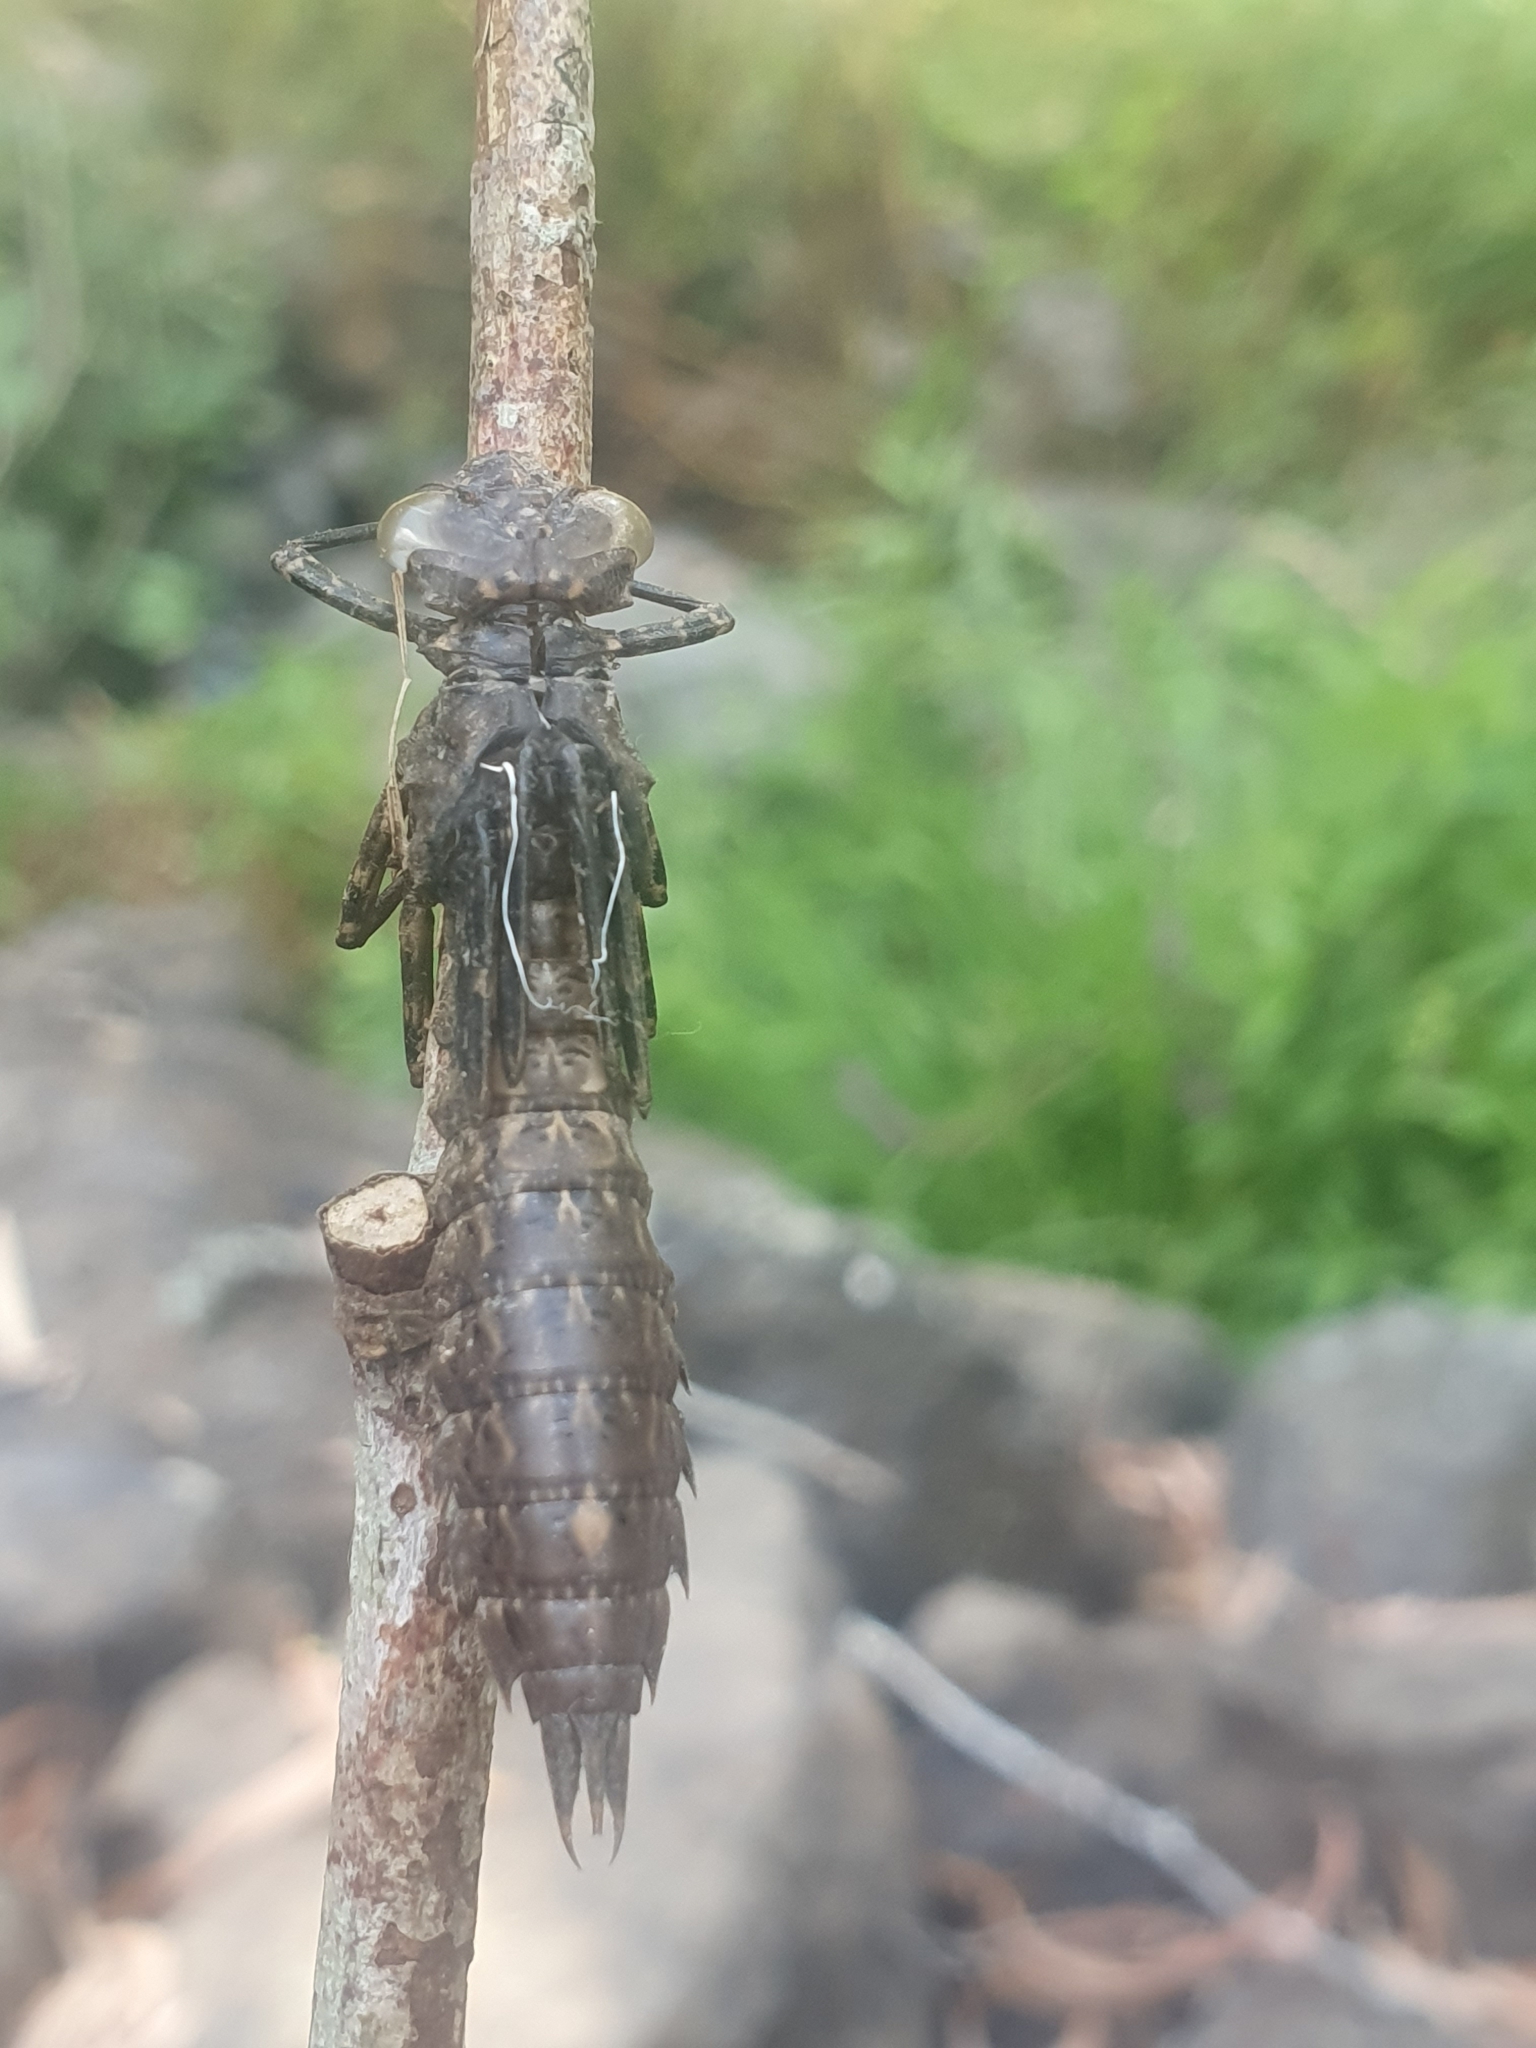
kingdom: Animalia
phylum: Arthropoda
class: Insecta
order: Odonata
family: Aeshnidae
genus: Boyeria
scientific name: Boyeria irene
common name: Western spectre
